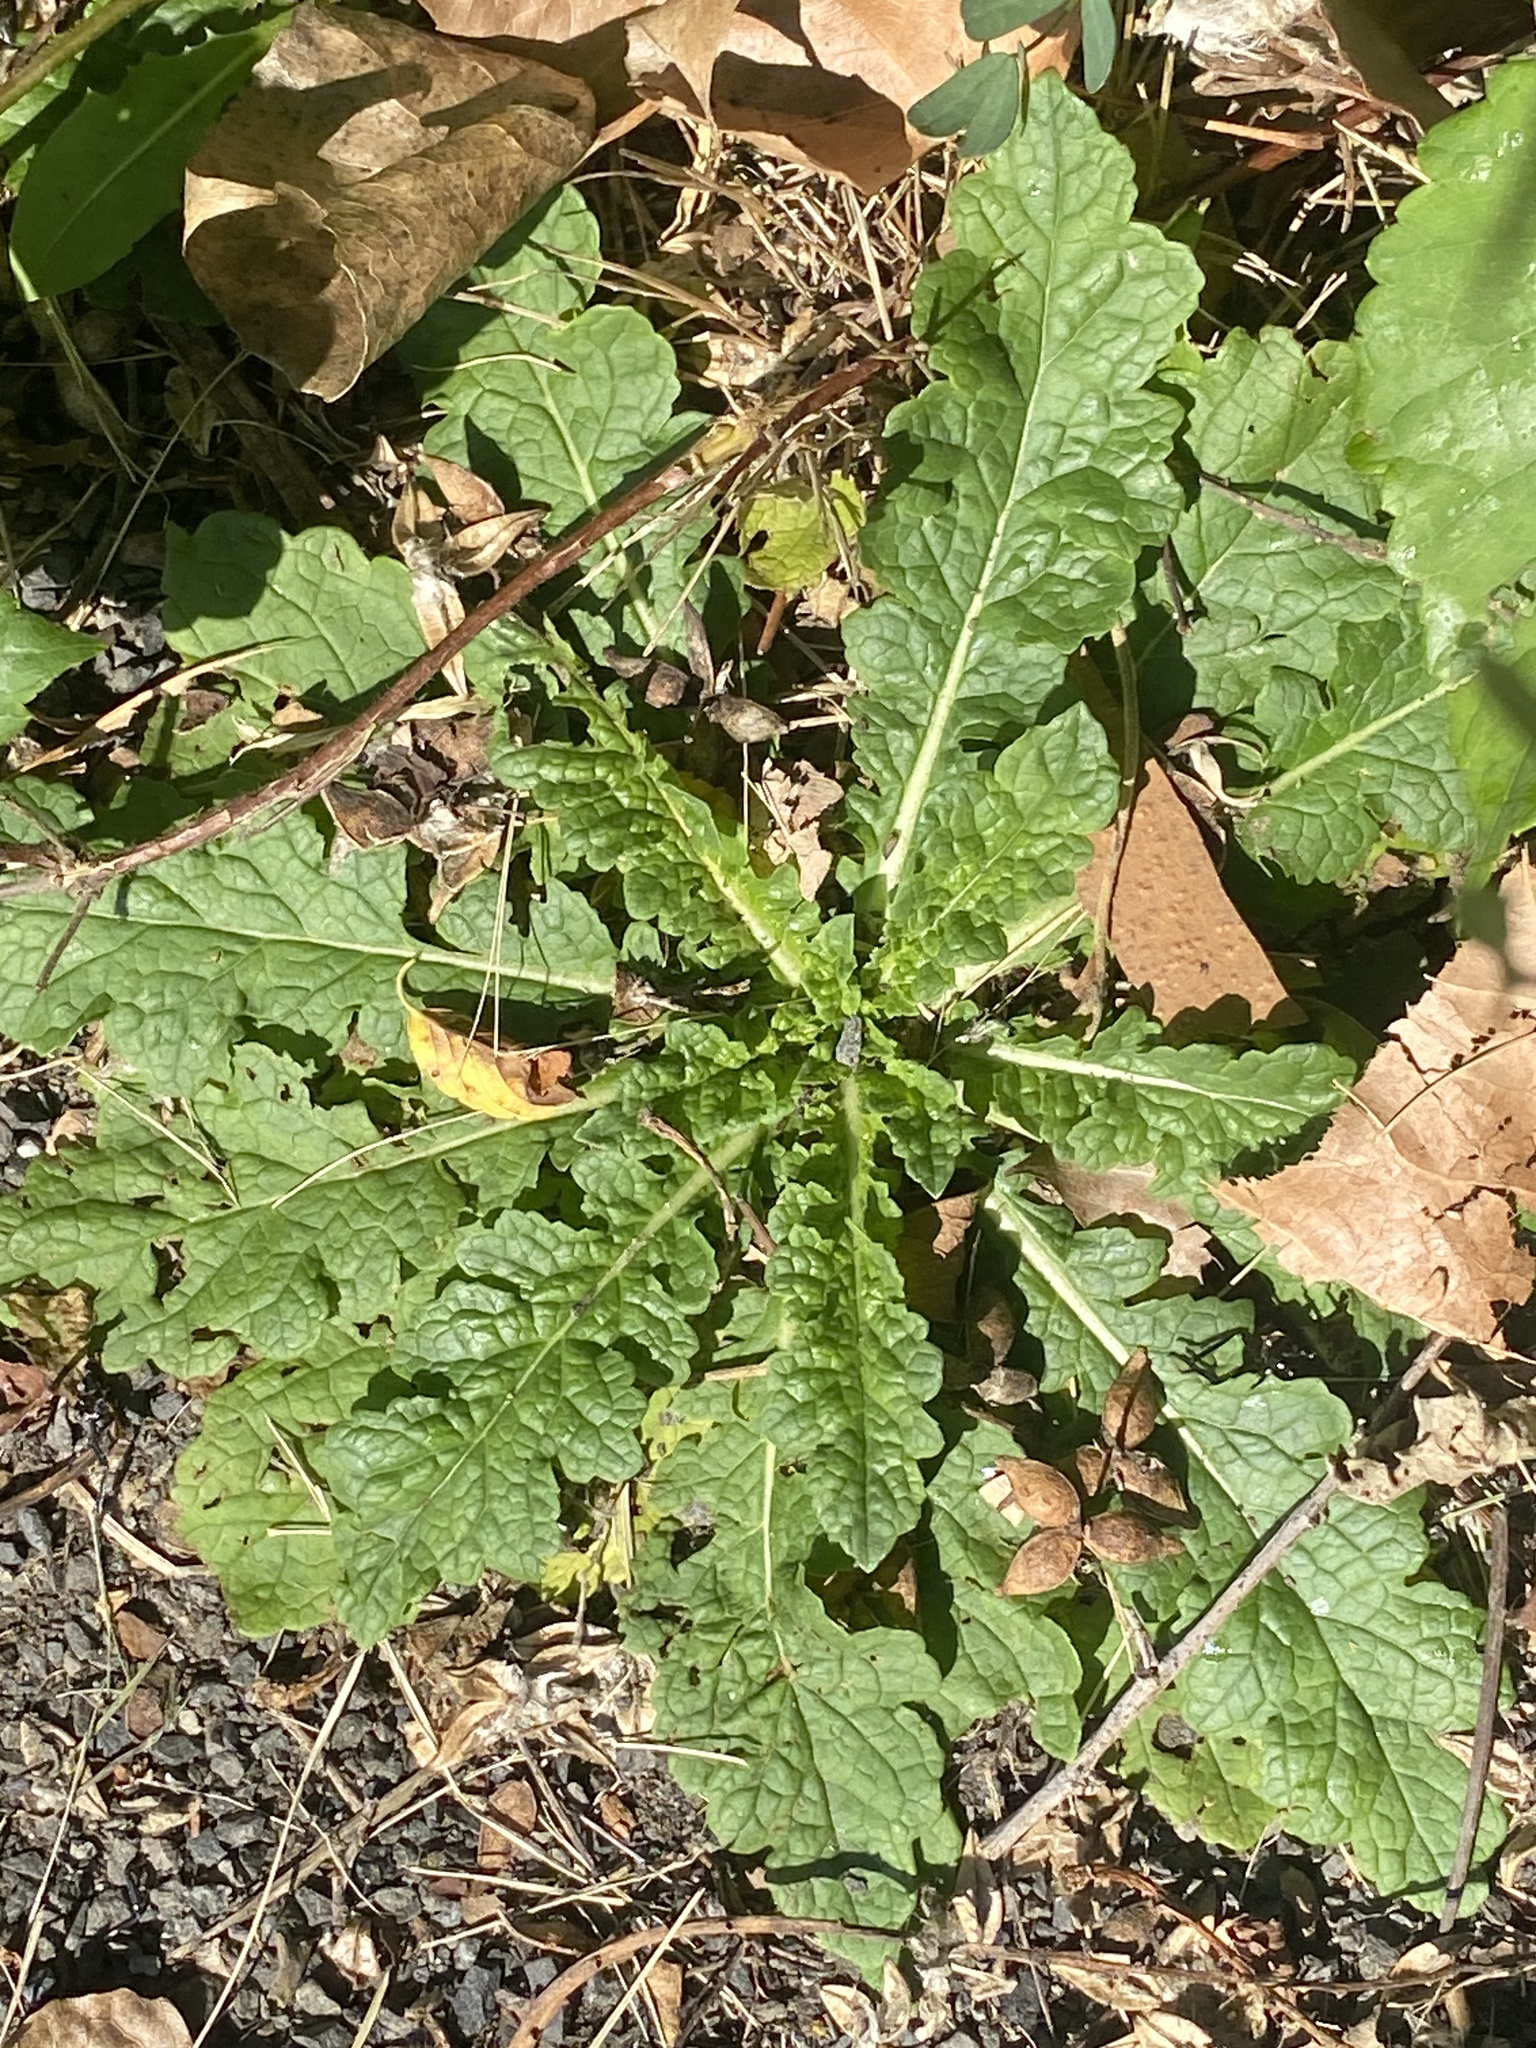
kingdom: Plantae
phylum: Tracheophyta
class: Magnoliopsida
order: Lamiales
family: Scrophulariaceae
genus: Verbascum
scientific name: Verbascum blattaria
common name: Moth mullein
